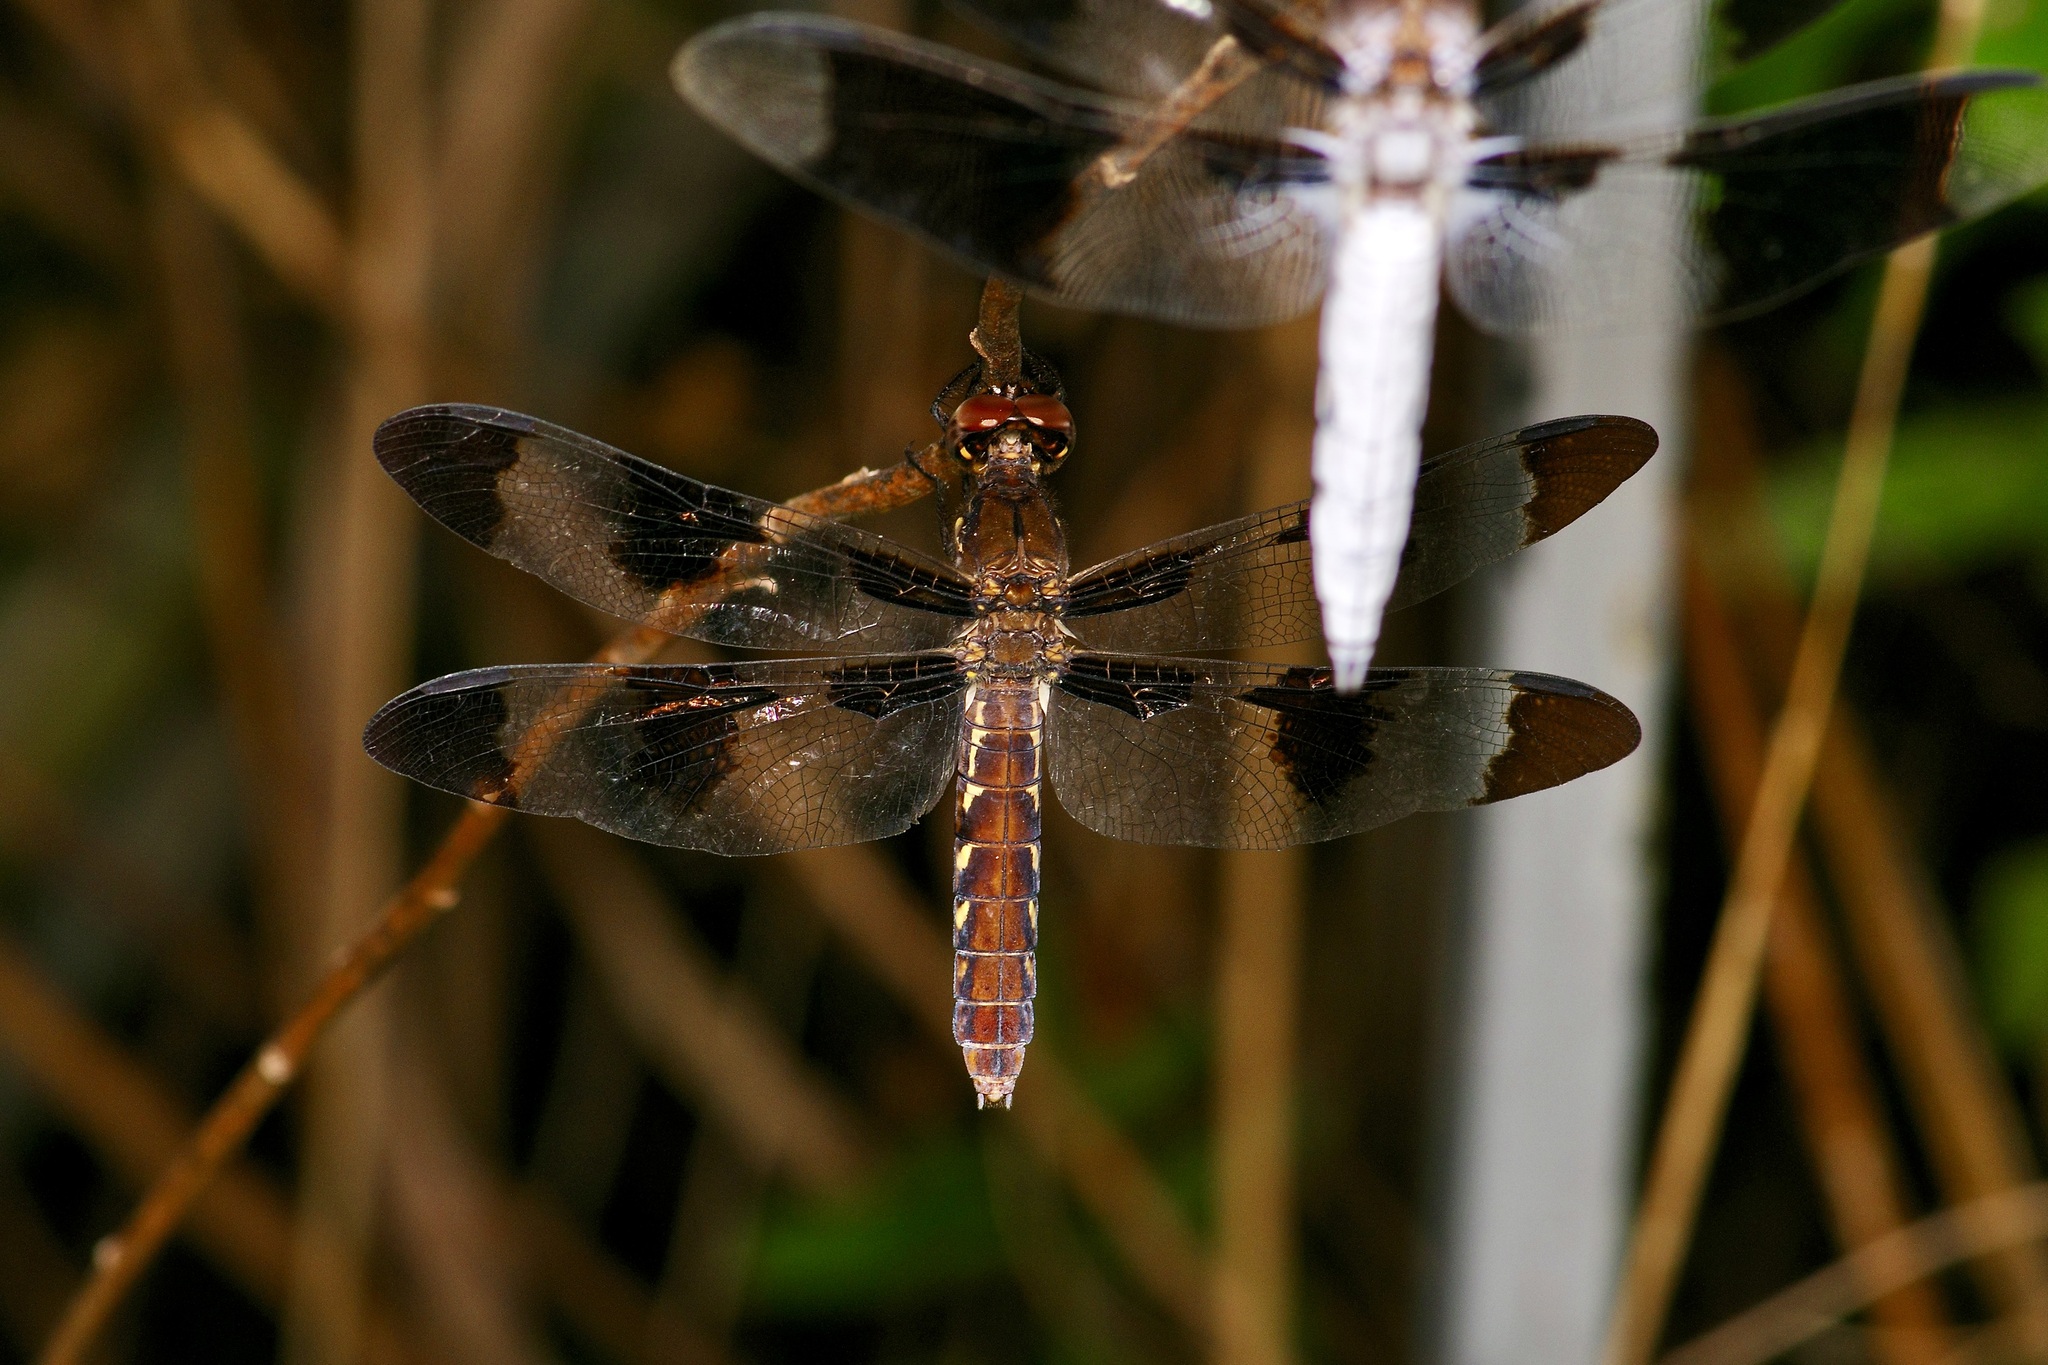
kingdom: Animalia
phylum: Arthropoda
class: Insecta
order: Odonata
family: Libellulidae
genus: Plathemis
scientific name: Plathemis lydia
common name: Common whitetail
